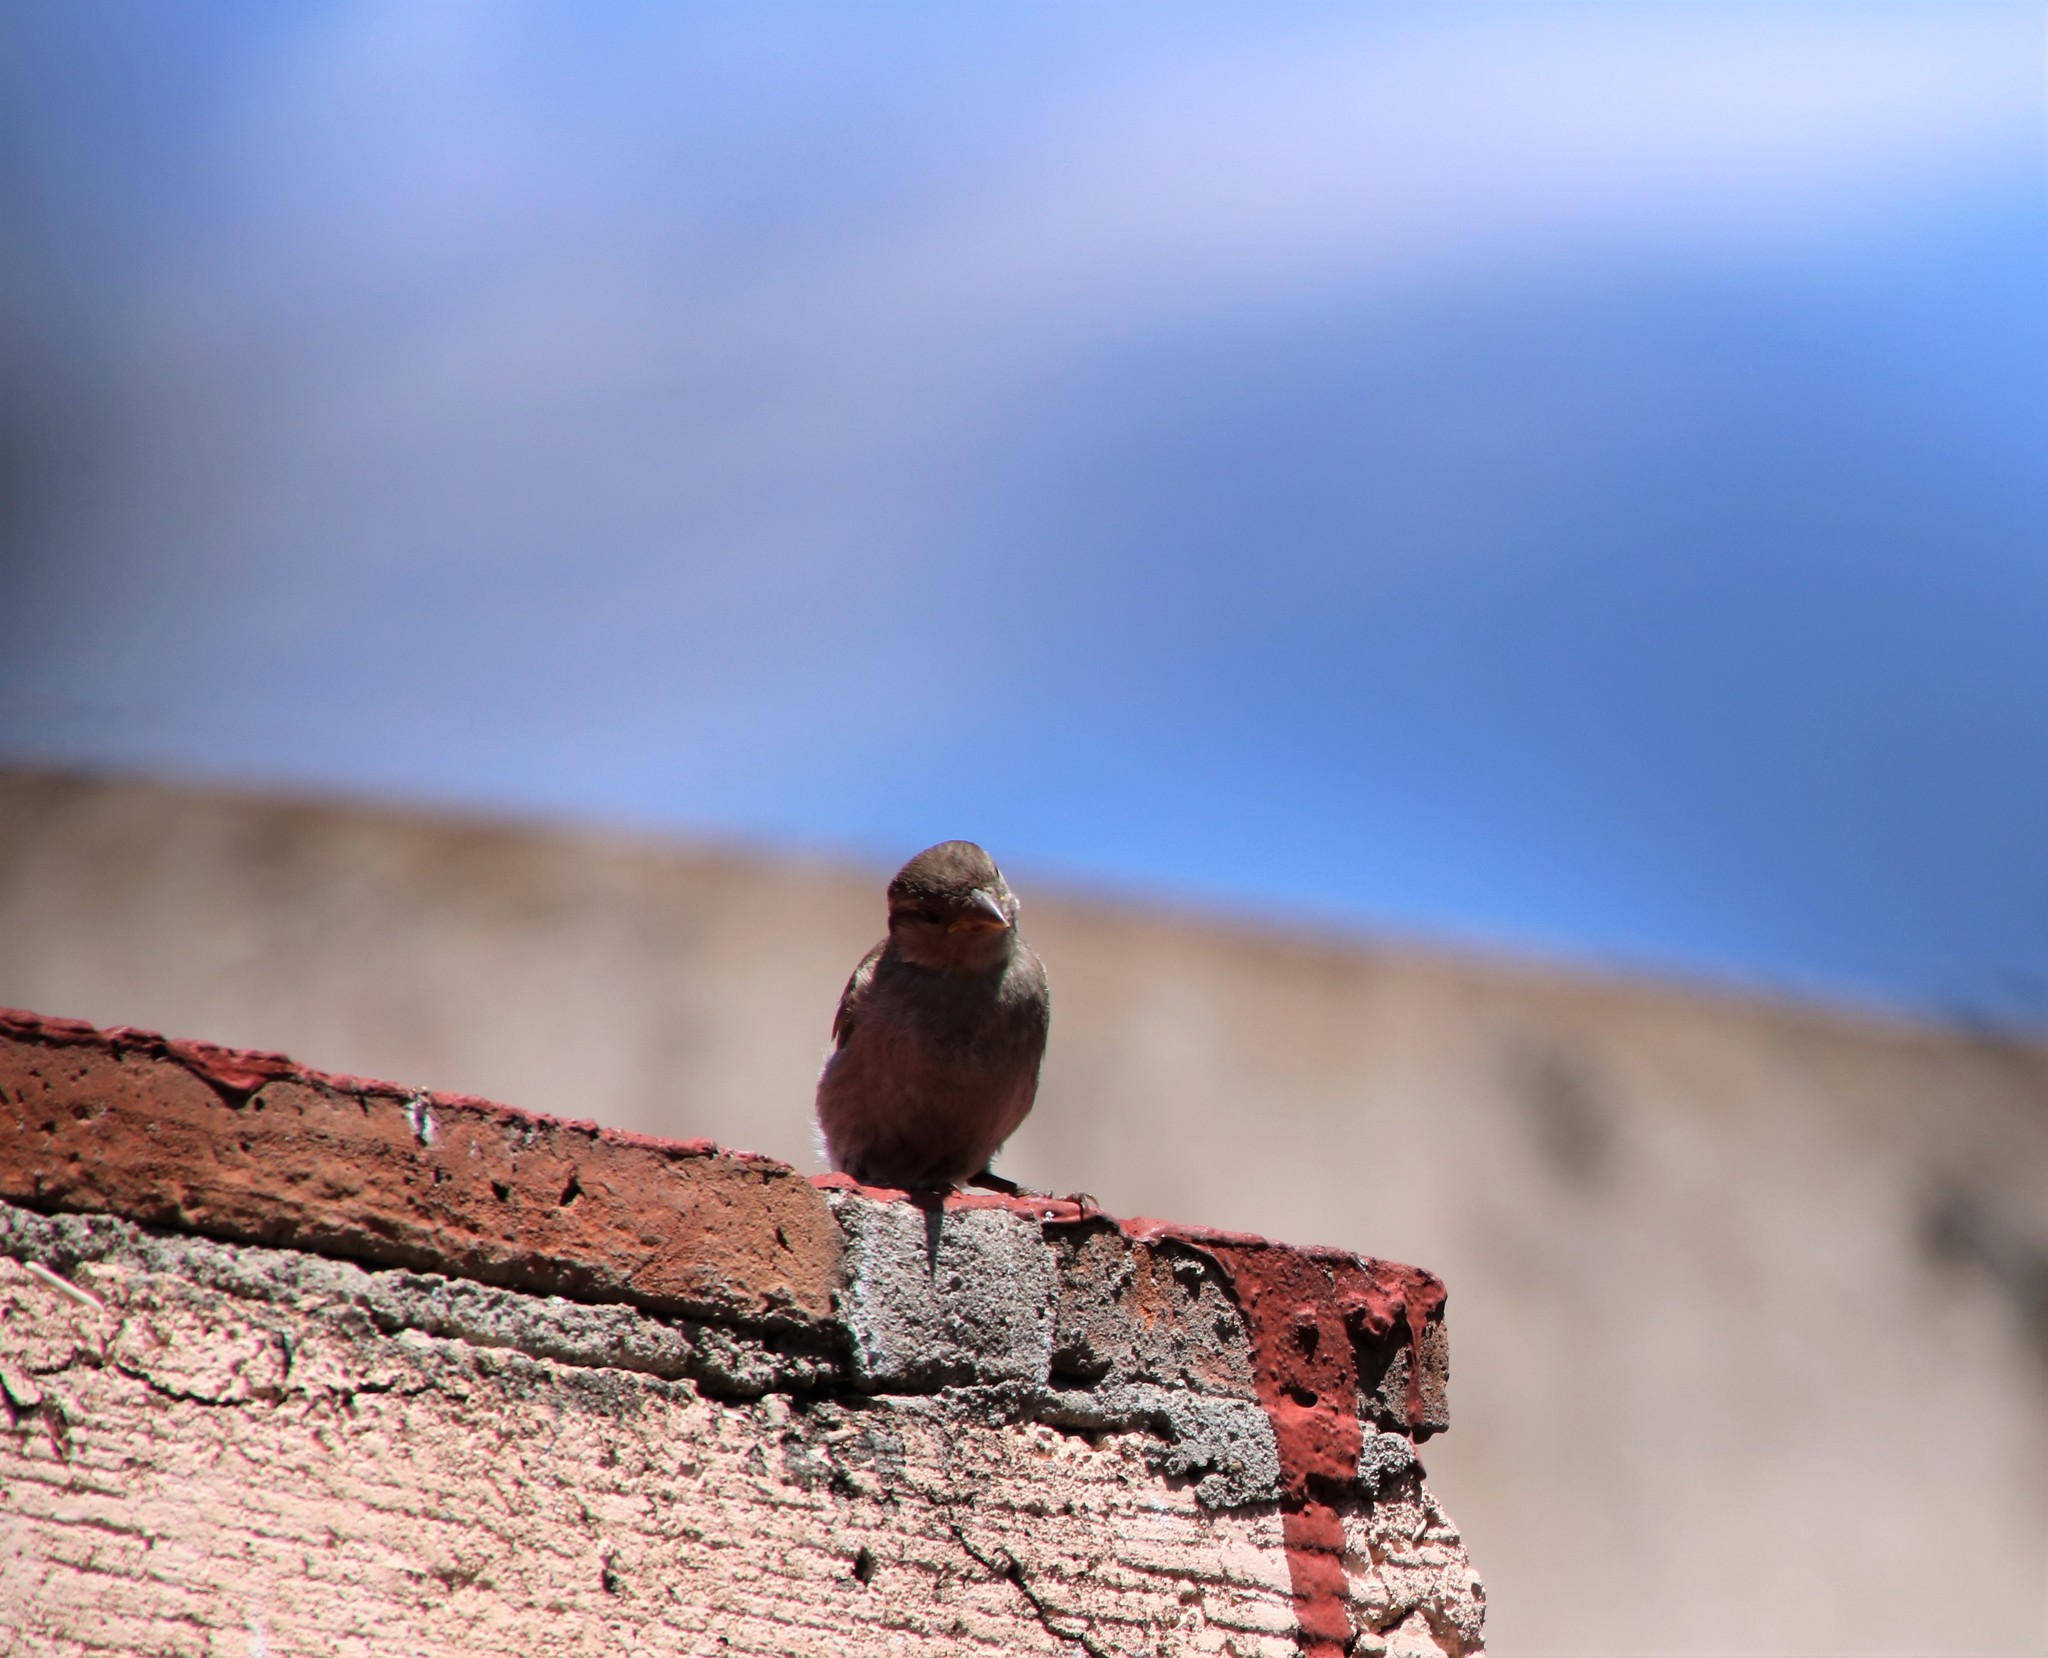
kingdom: Animalia
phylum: Chordata
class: Aves
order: Passeriformes
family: Passeridae
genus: Passer
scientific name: Passer domesticus
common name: House sparrow
